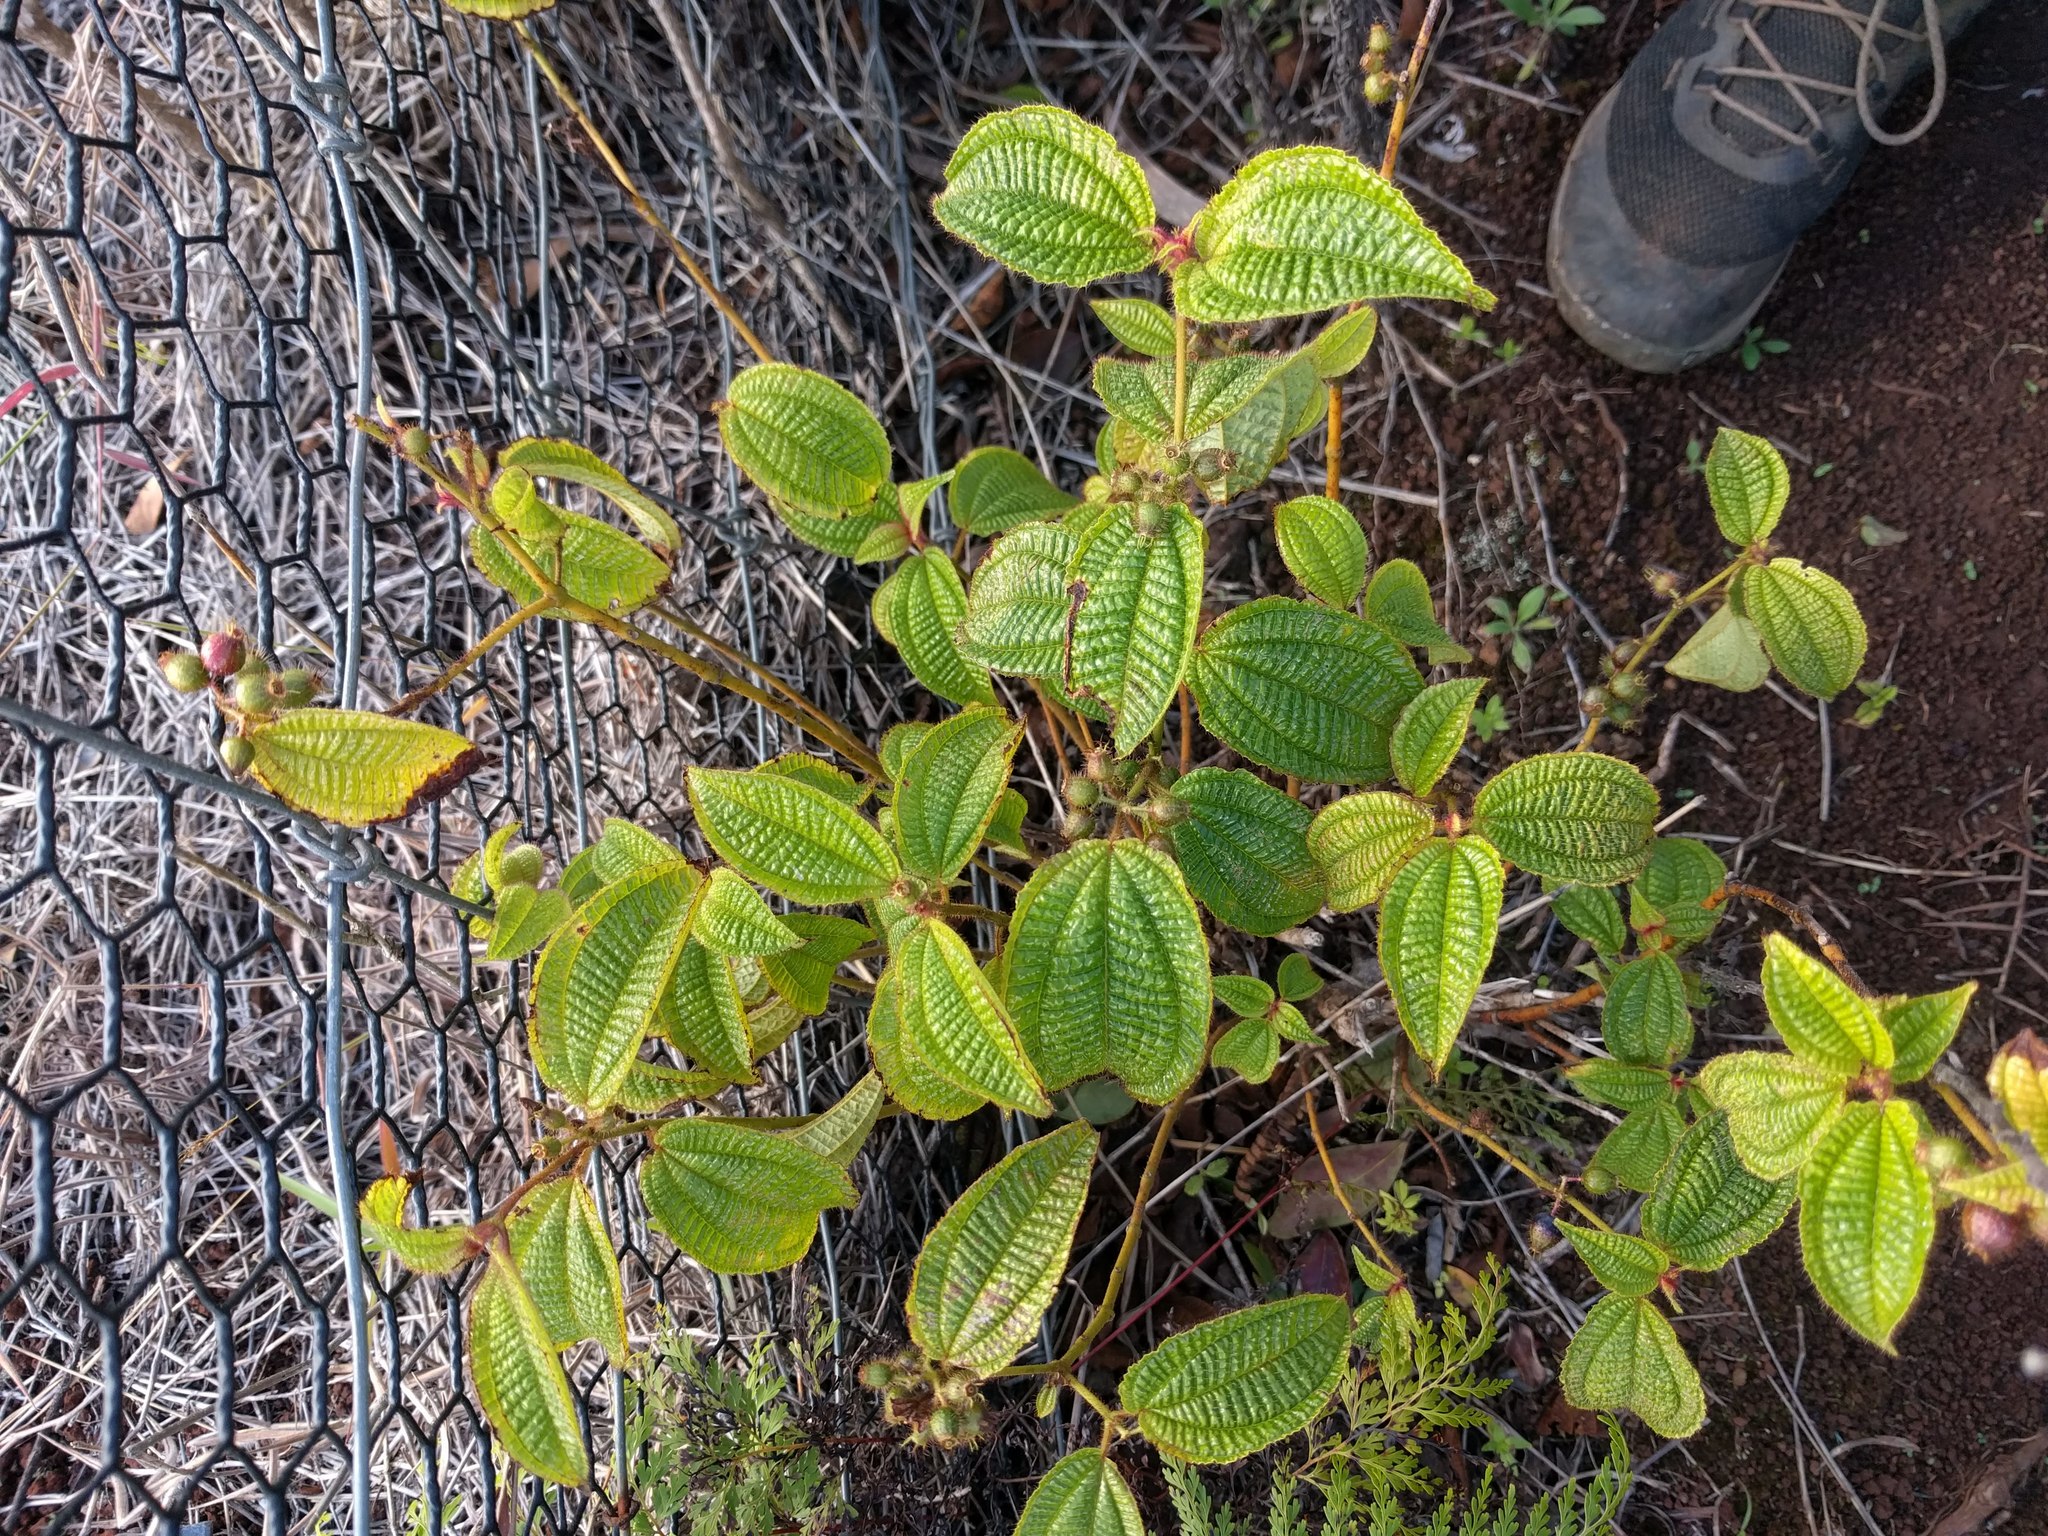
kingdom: Plantae
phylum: Tracheophyta
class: Magnoliopsida
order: Myrtales
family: Melastomataceae
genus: Miconia
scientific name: Miconia crenata
